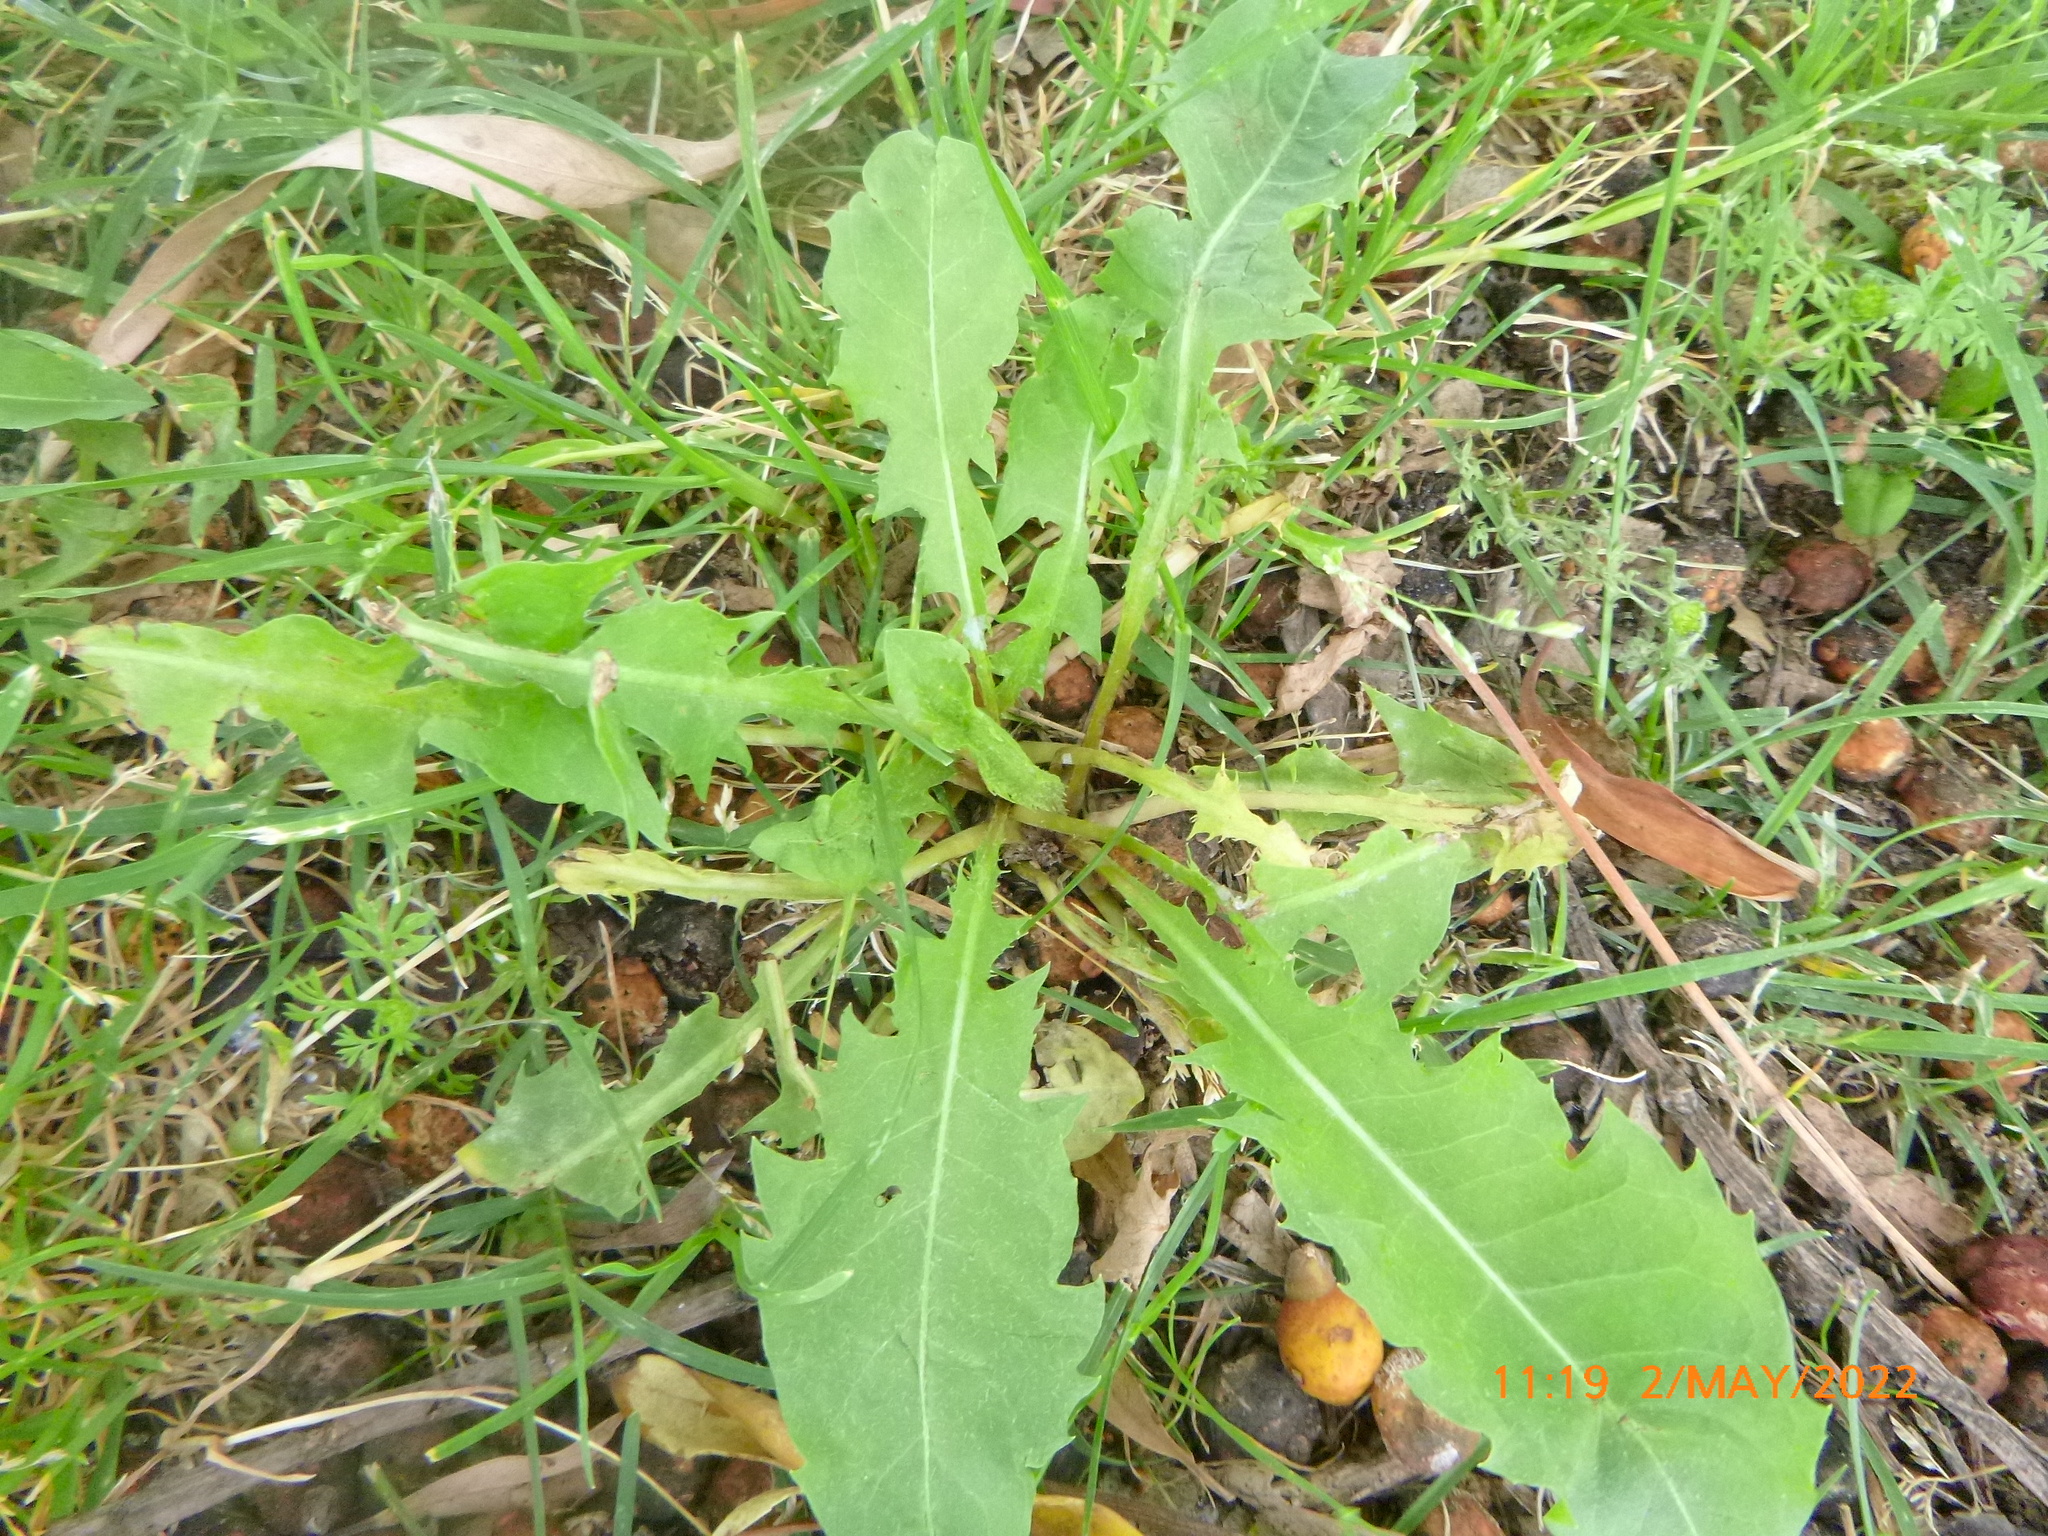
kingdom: Plantae
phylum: Tracheophyta
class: Magnoliopsida
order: Asterales
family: Asteraceae
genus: Taraxacum
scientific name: Taraxacum officinale
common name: Common dandelion
